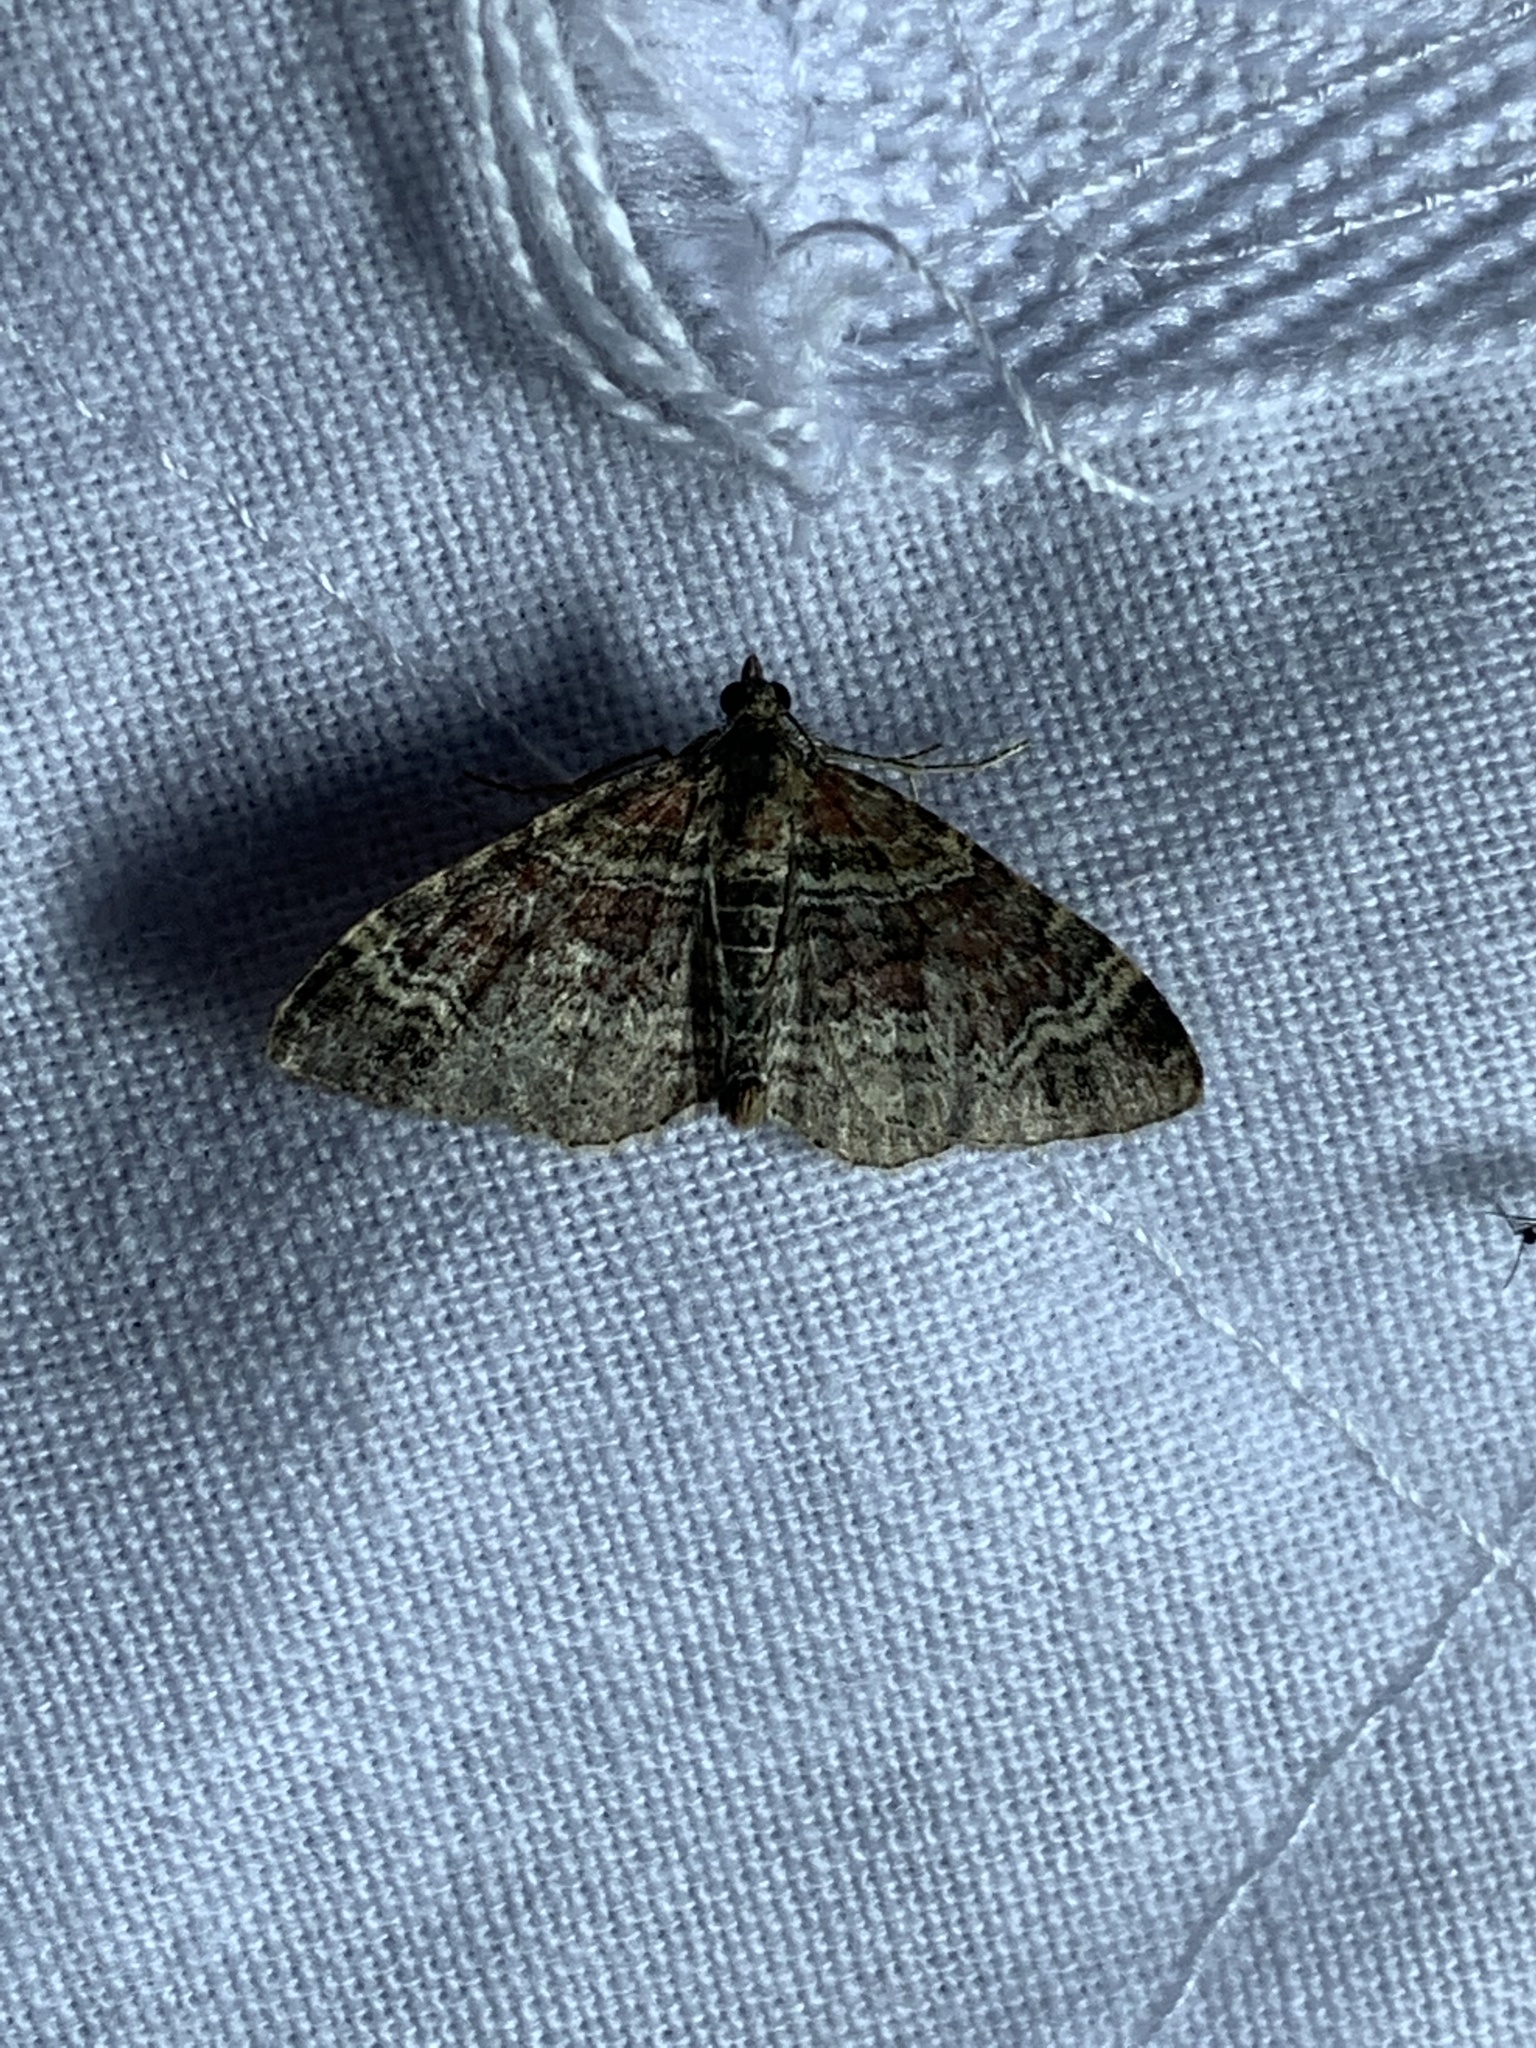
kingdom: Animalia
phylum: Arthropoda
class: Insecta
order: Lepidoptera
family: Geometridae
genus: Xanthorhoe
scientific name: Xanthorhoe spadicearia
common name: Red twin-spot carpet
